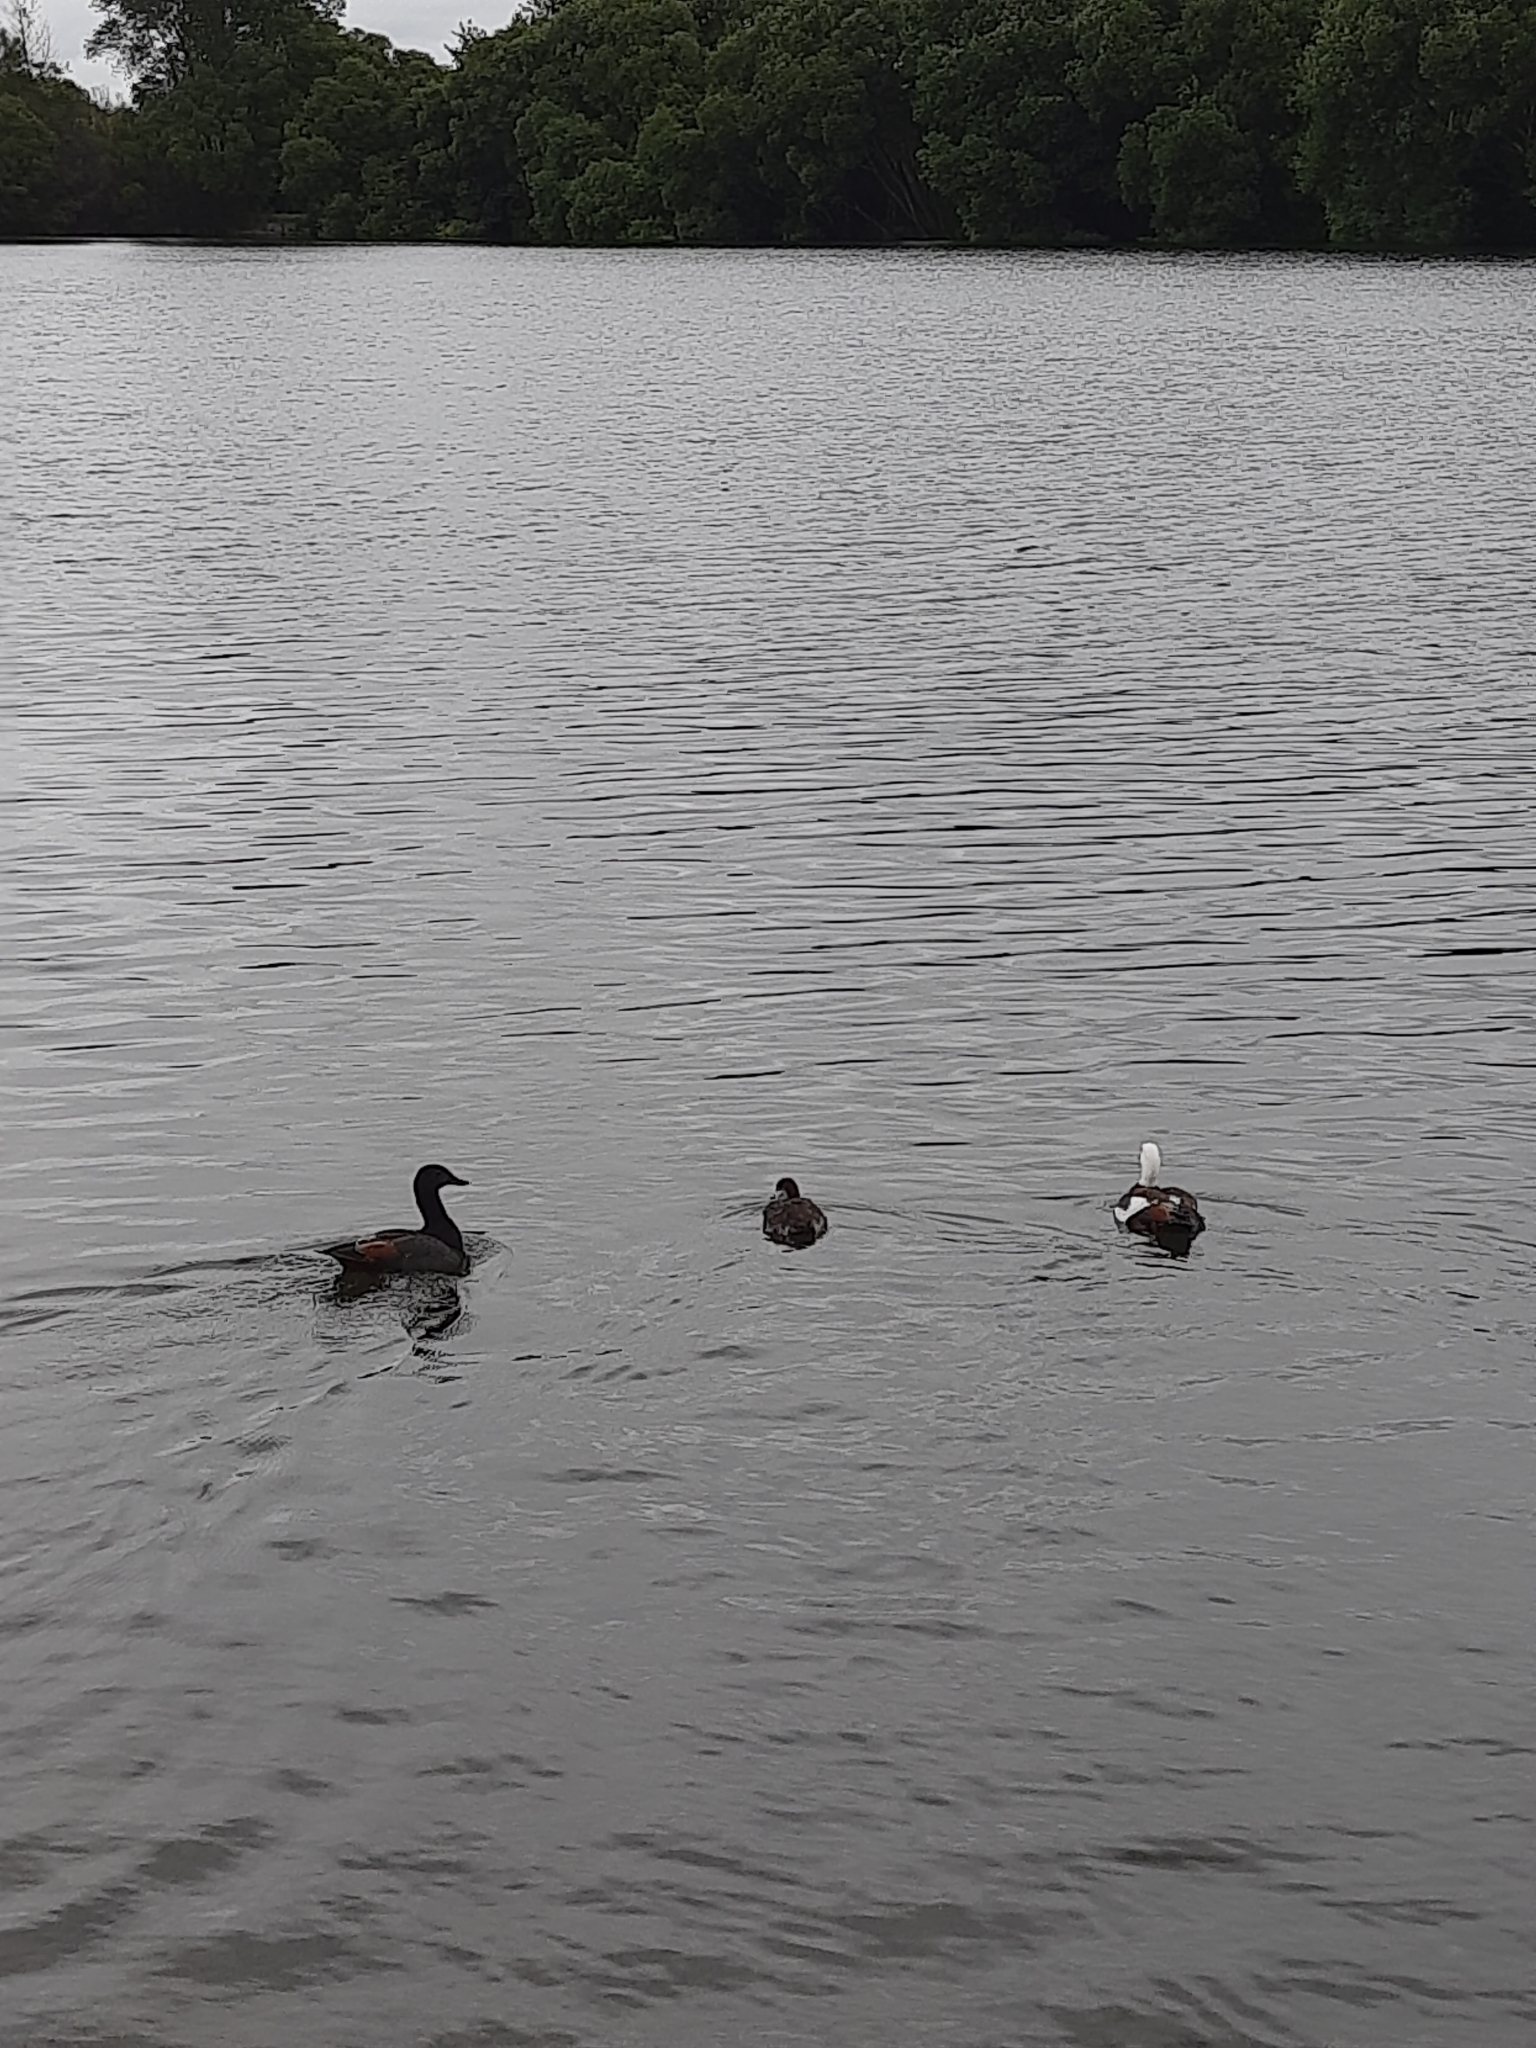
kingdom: Animalia
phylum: Chordata
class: Aves
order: Anseriformes
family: Anatidae
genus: Tadorna
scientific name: Tadorna variegata
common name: Paradise shelduck
